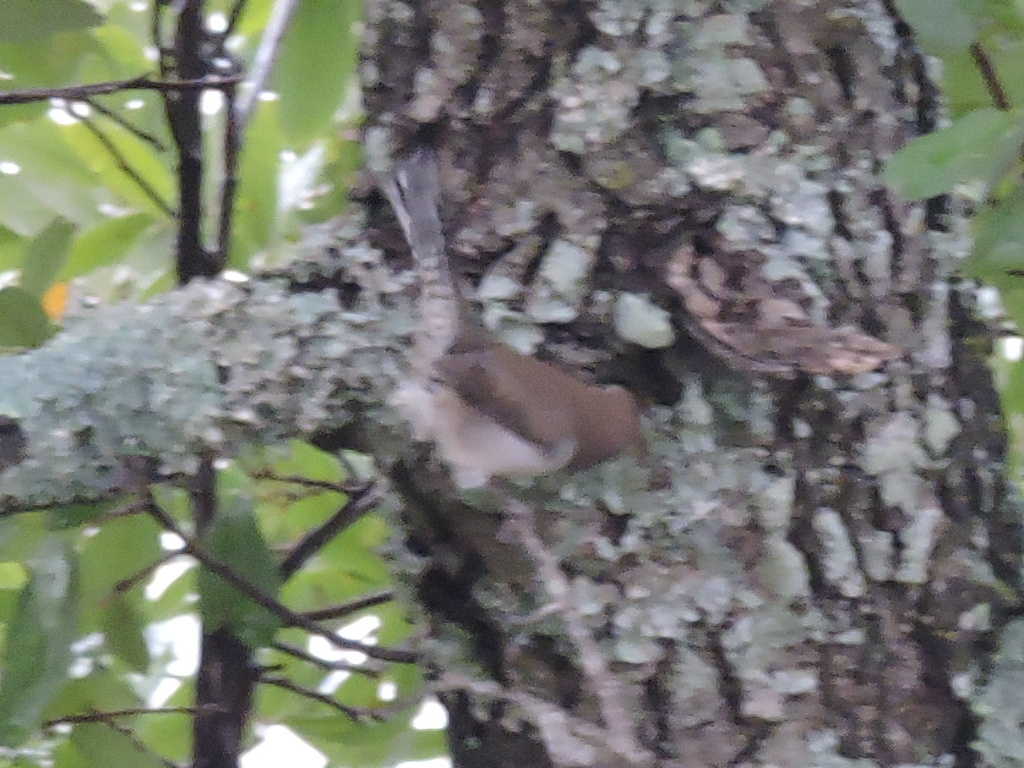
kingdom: Animalia
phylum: Chordata
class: Aves
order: Passeriformes
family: Troglodytidae
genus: Thryomanes
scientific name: Thryomanes bewickii
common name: Bewick's wren
